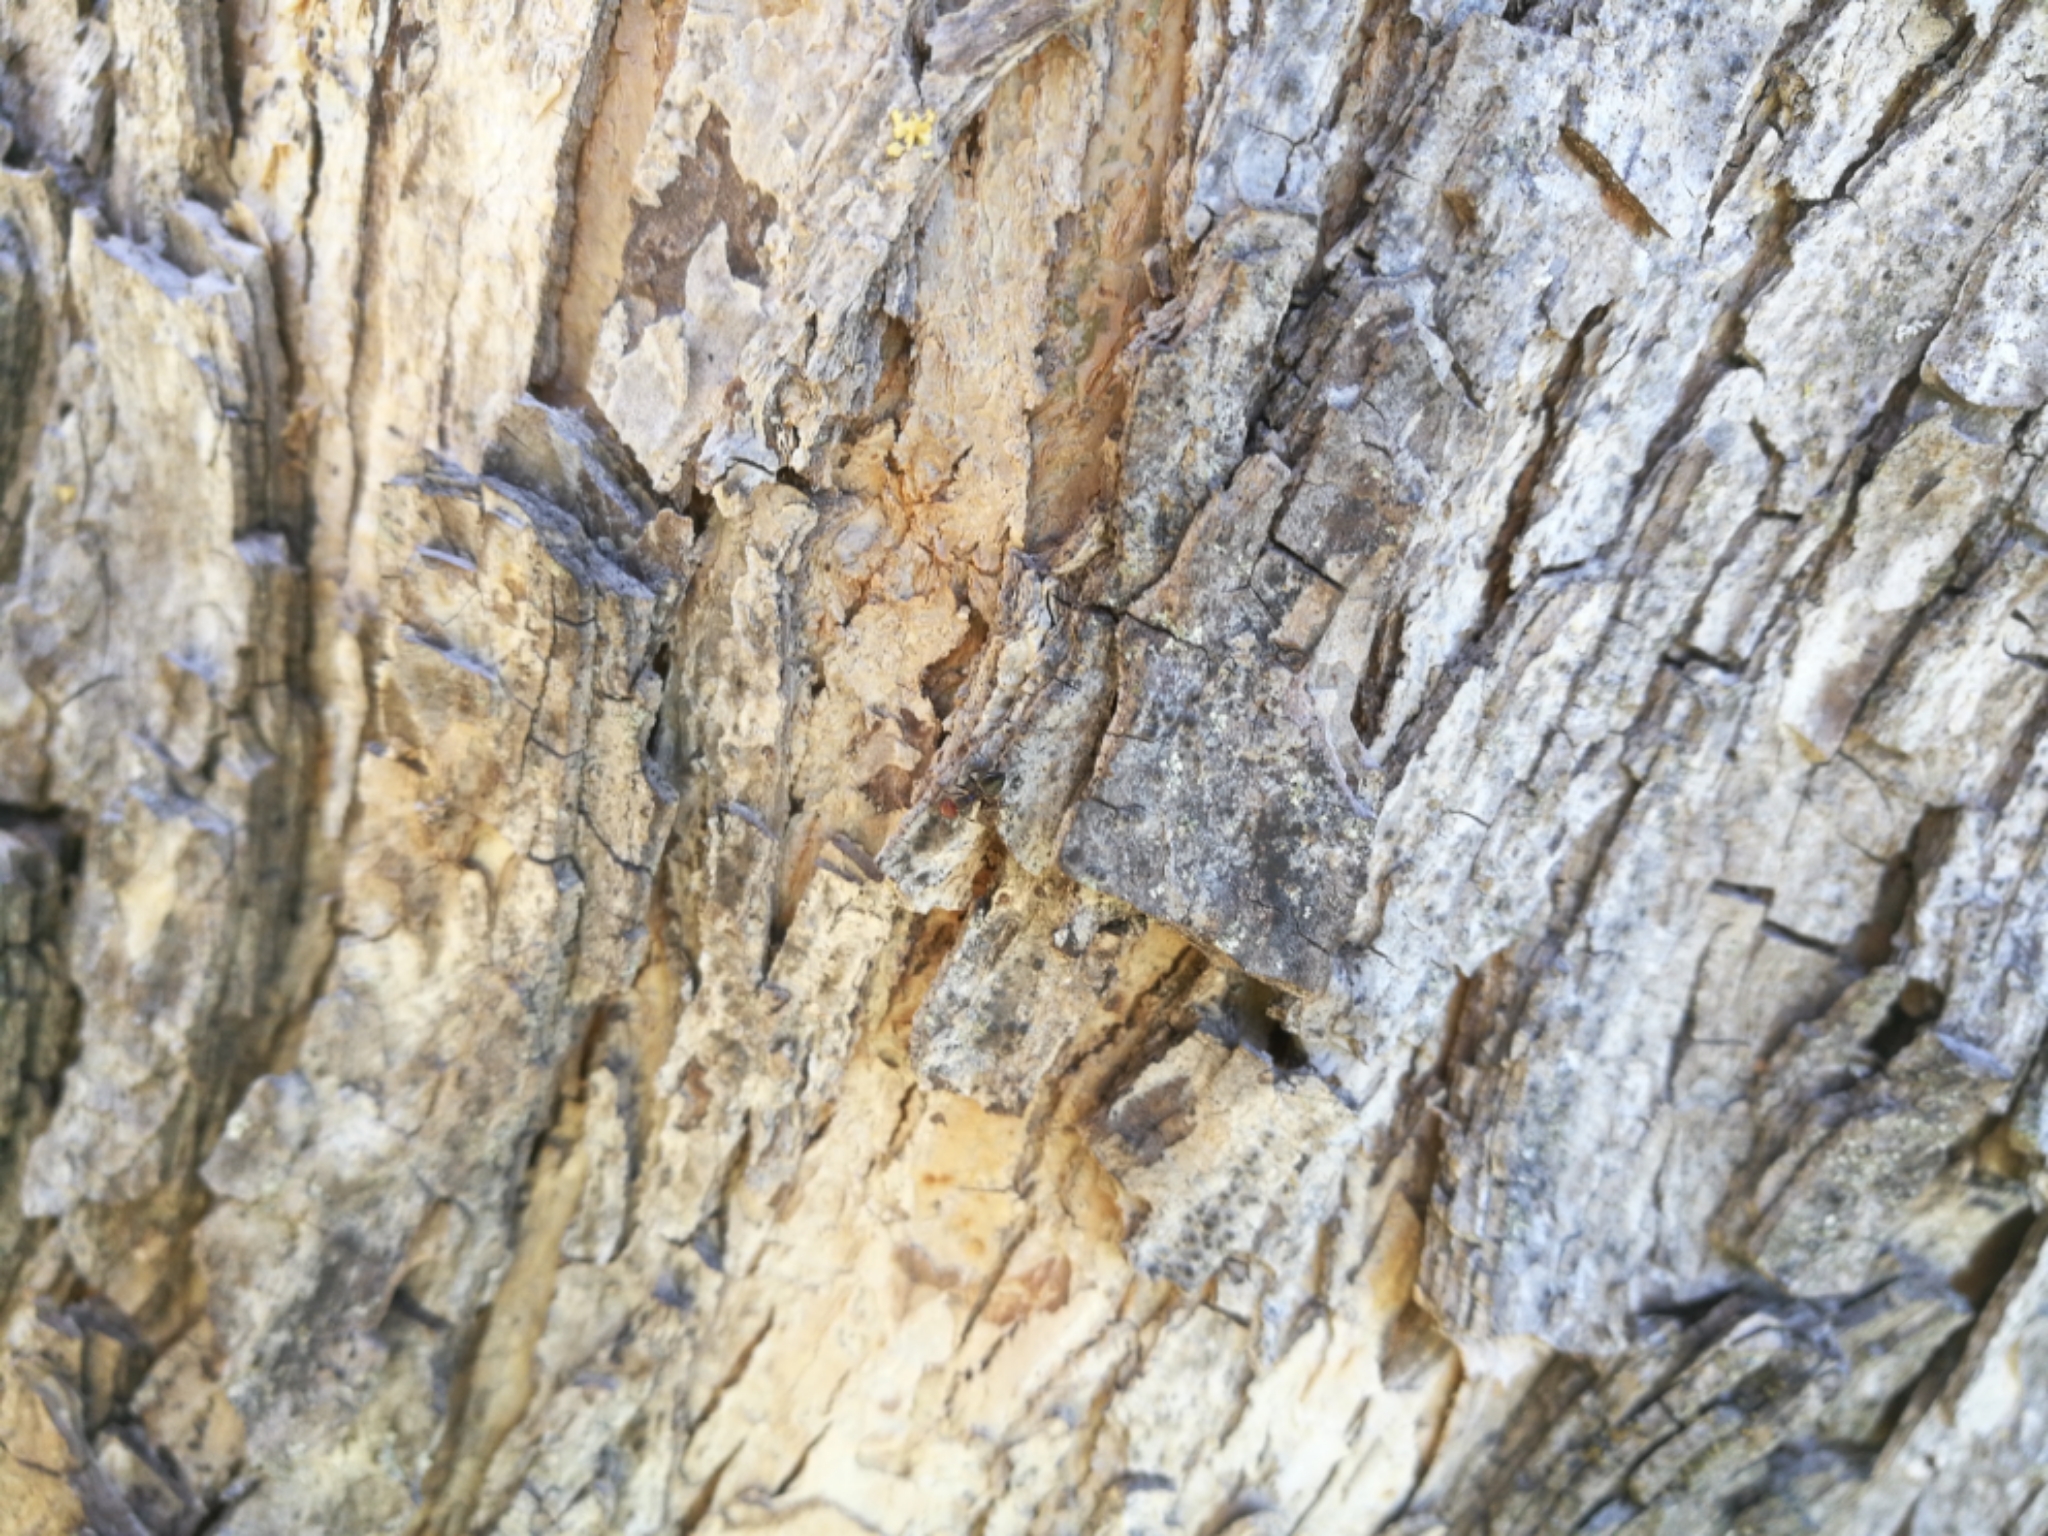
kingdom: Animalia
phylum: Arthropoda
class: Insecta
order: Hymenoptera
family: Formicidae
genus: Crematogaster
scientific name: Crematogaster scutellaris
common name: Fourmi du liège
